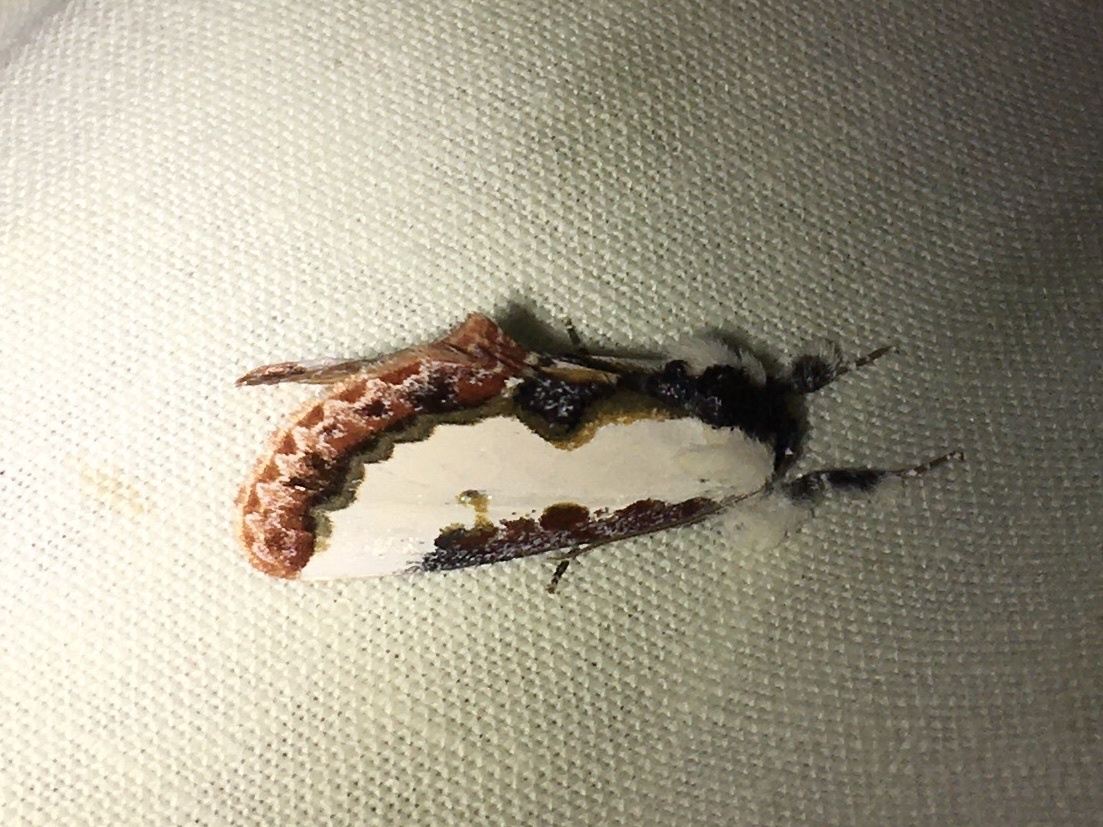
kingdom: Animalia
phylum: Arthropoda
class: Insecta
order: Lepidoptera
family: Noctuidae
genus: Eudryas
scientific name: Eudryas unio
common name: Pearly wood-nymph
